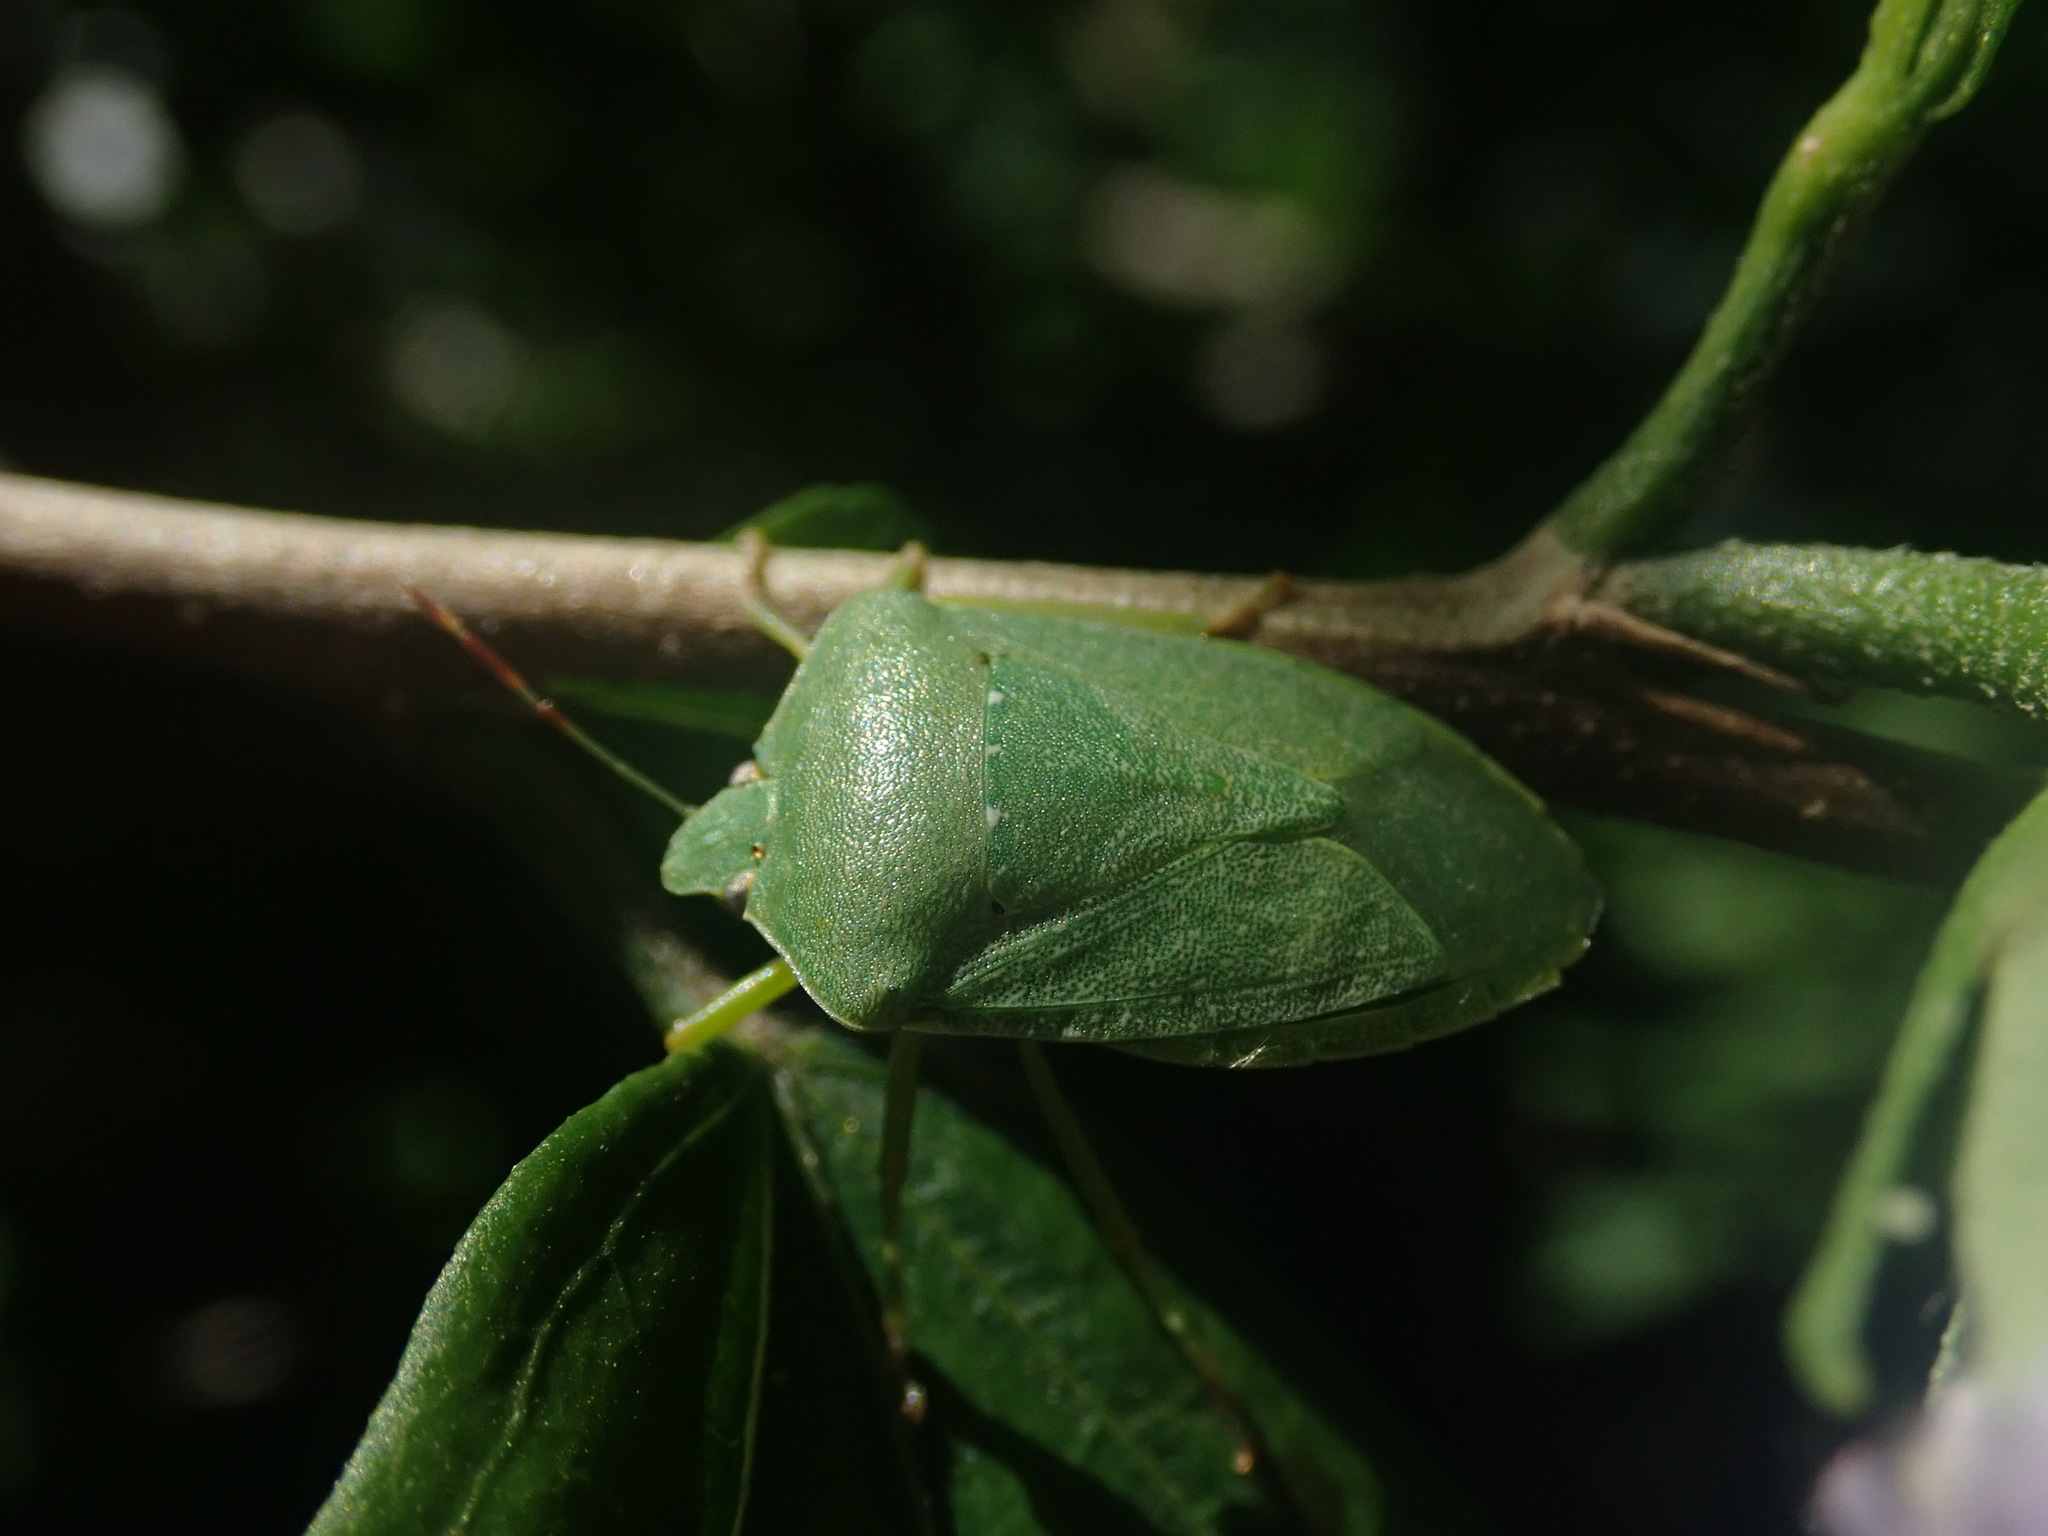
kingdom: Animalia
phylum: Arthropoda
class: Insecta
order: Hemiptera
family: Pentatomidae
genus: Nezara
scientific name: Nezara viridula
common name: Southern green stink bug
